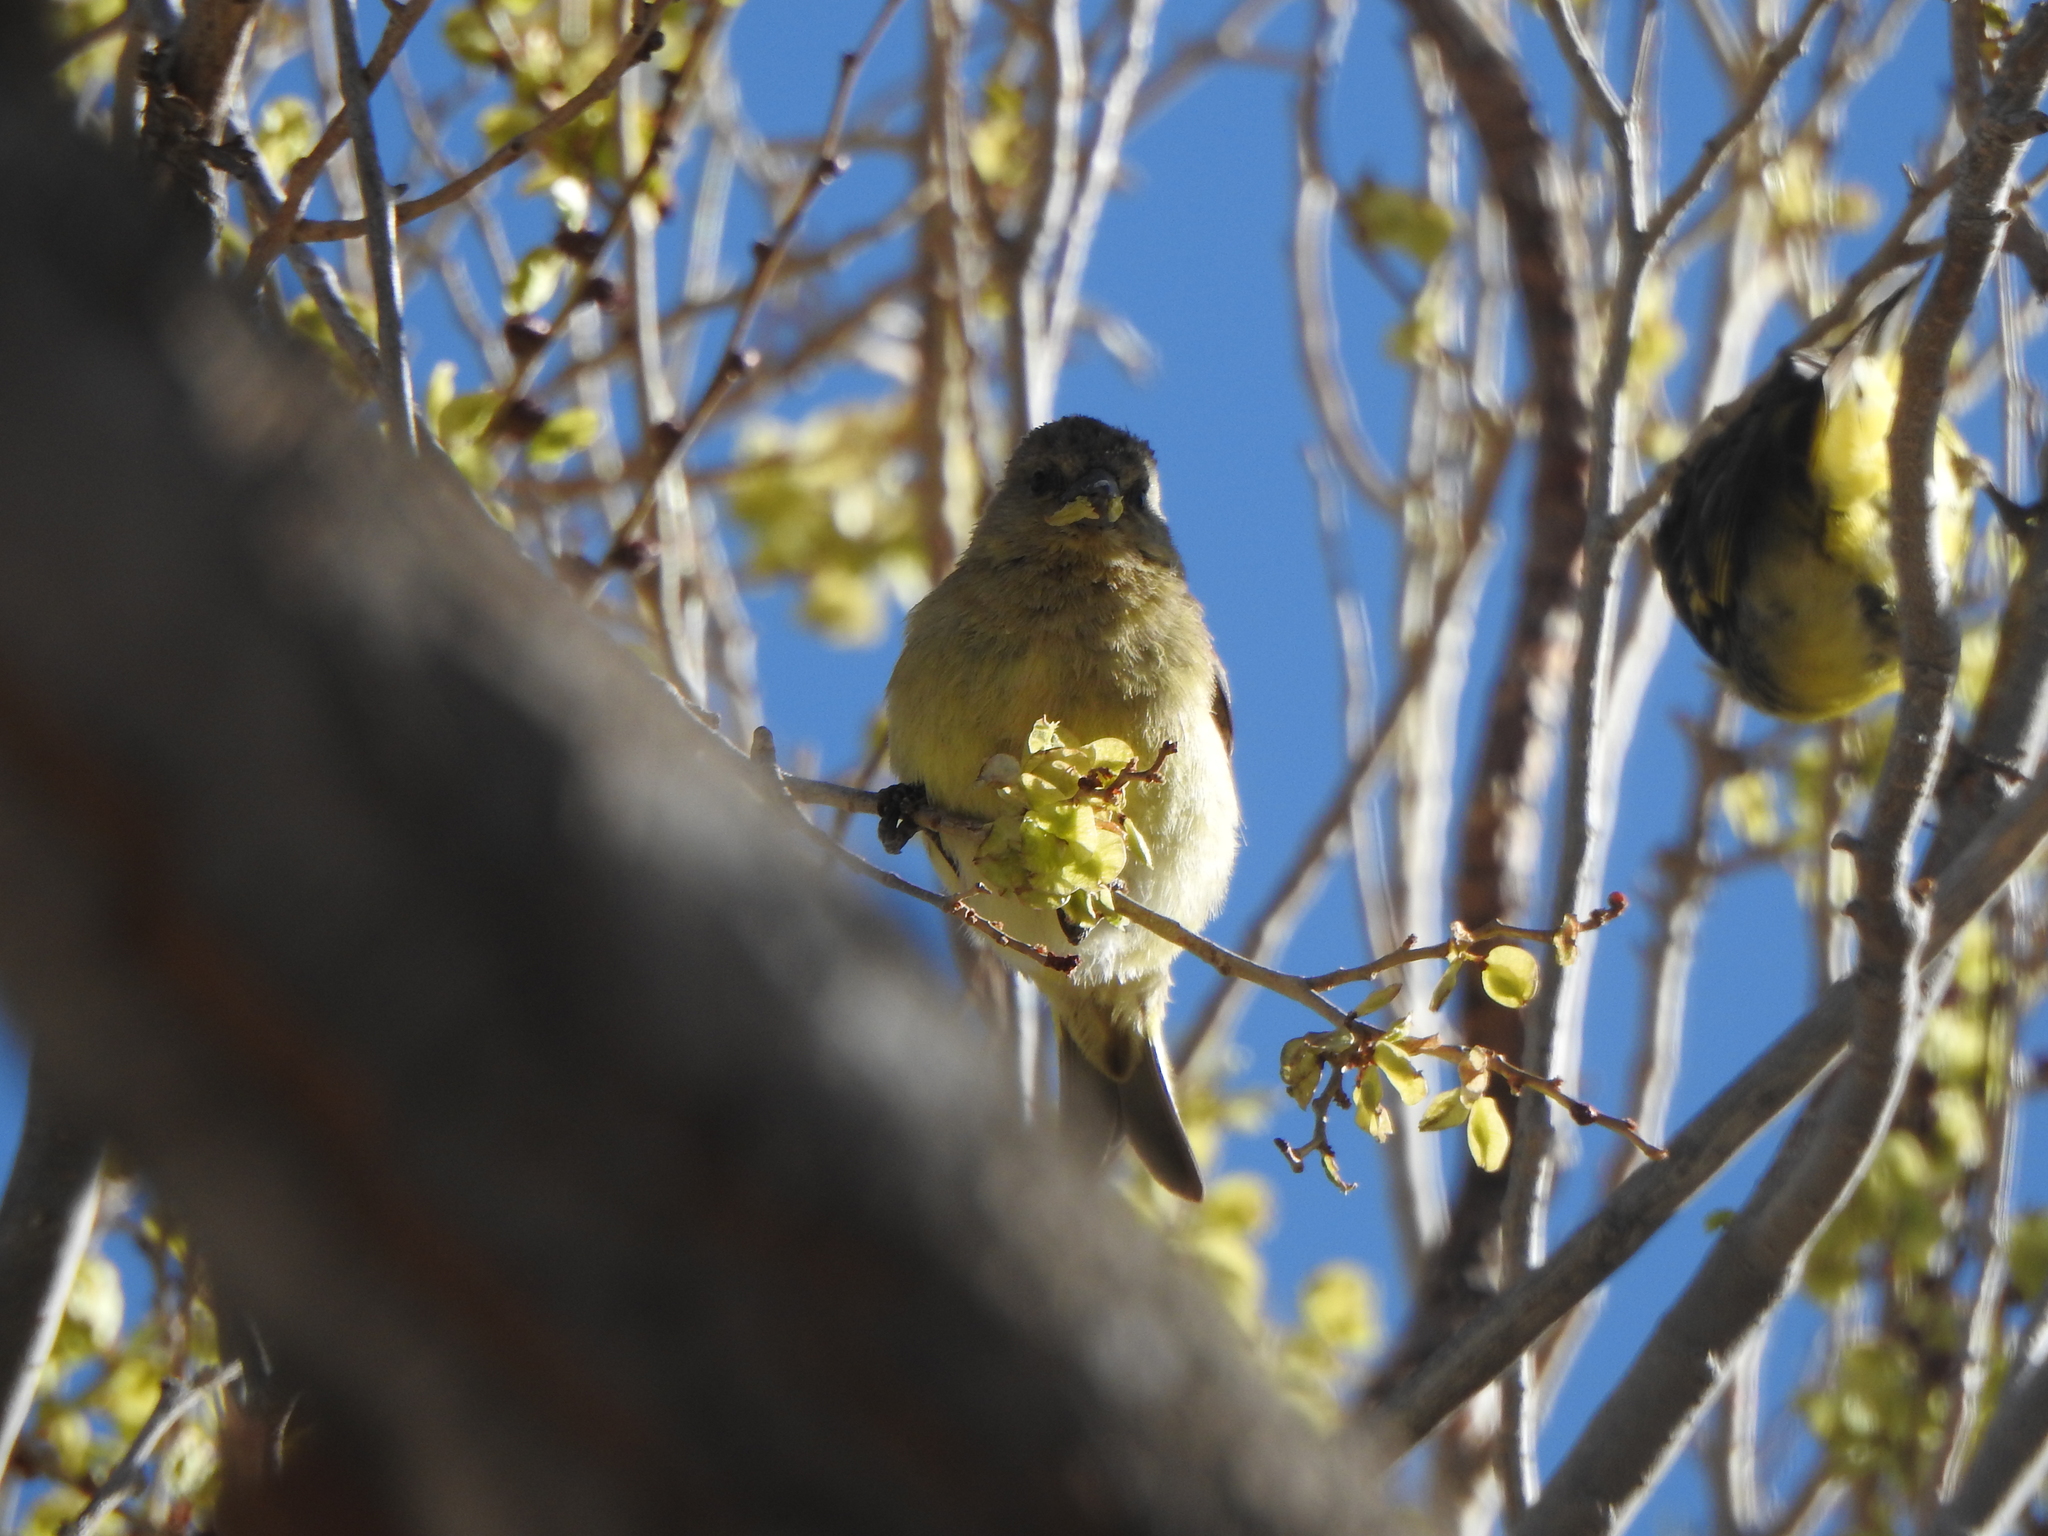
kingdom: Animalia
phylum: Chordata
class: Aves
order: Passeriformes
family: Fringillidae
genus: Spinus
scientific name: Spinus magellanicus
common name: Hooded siskin
